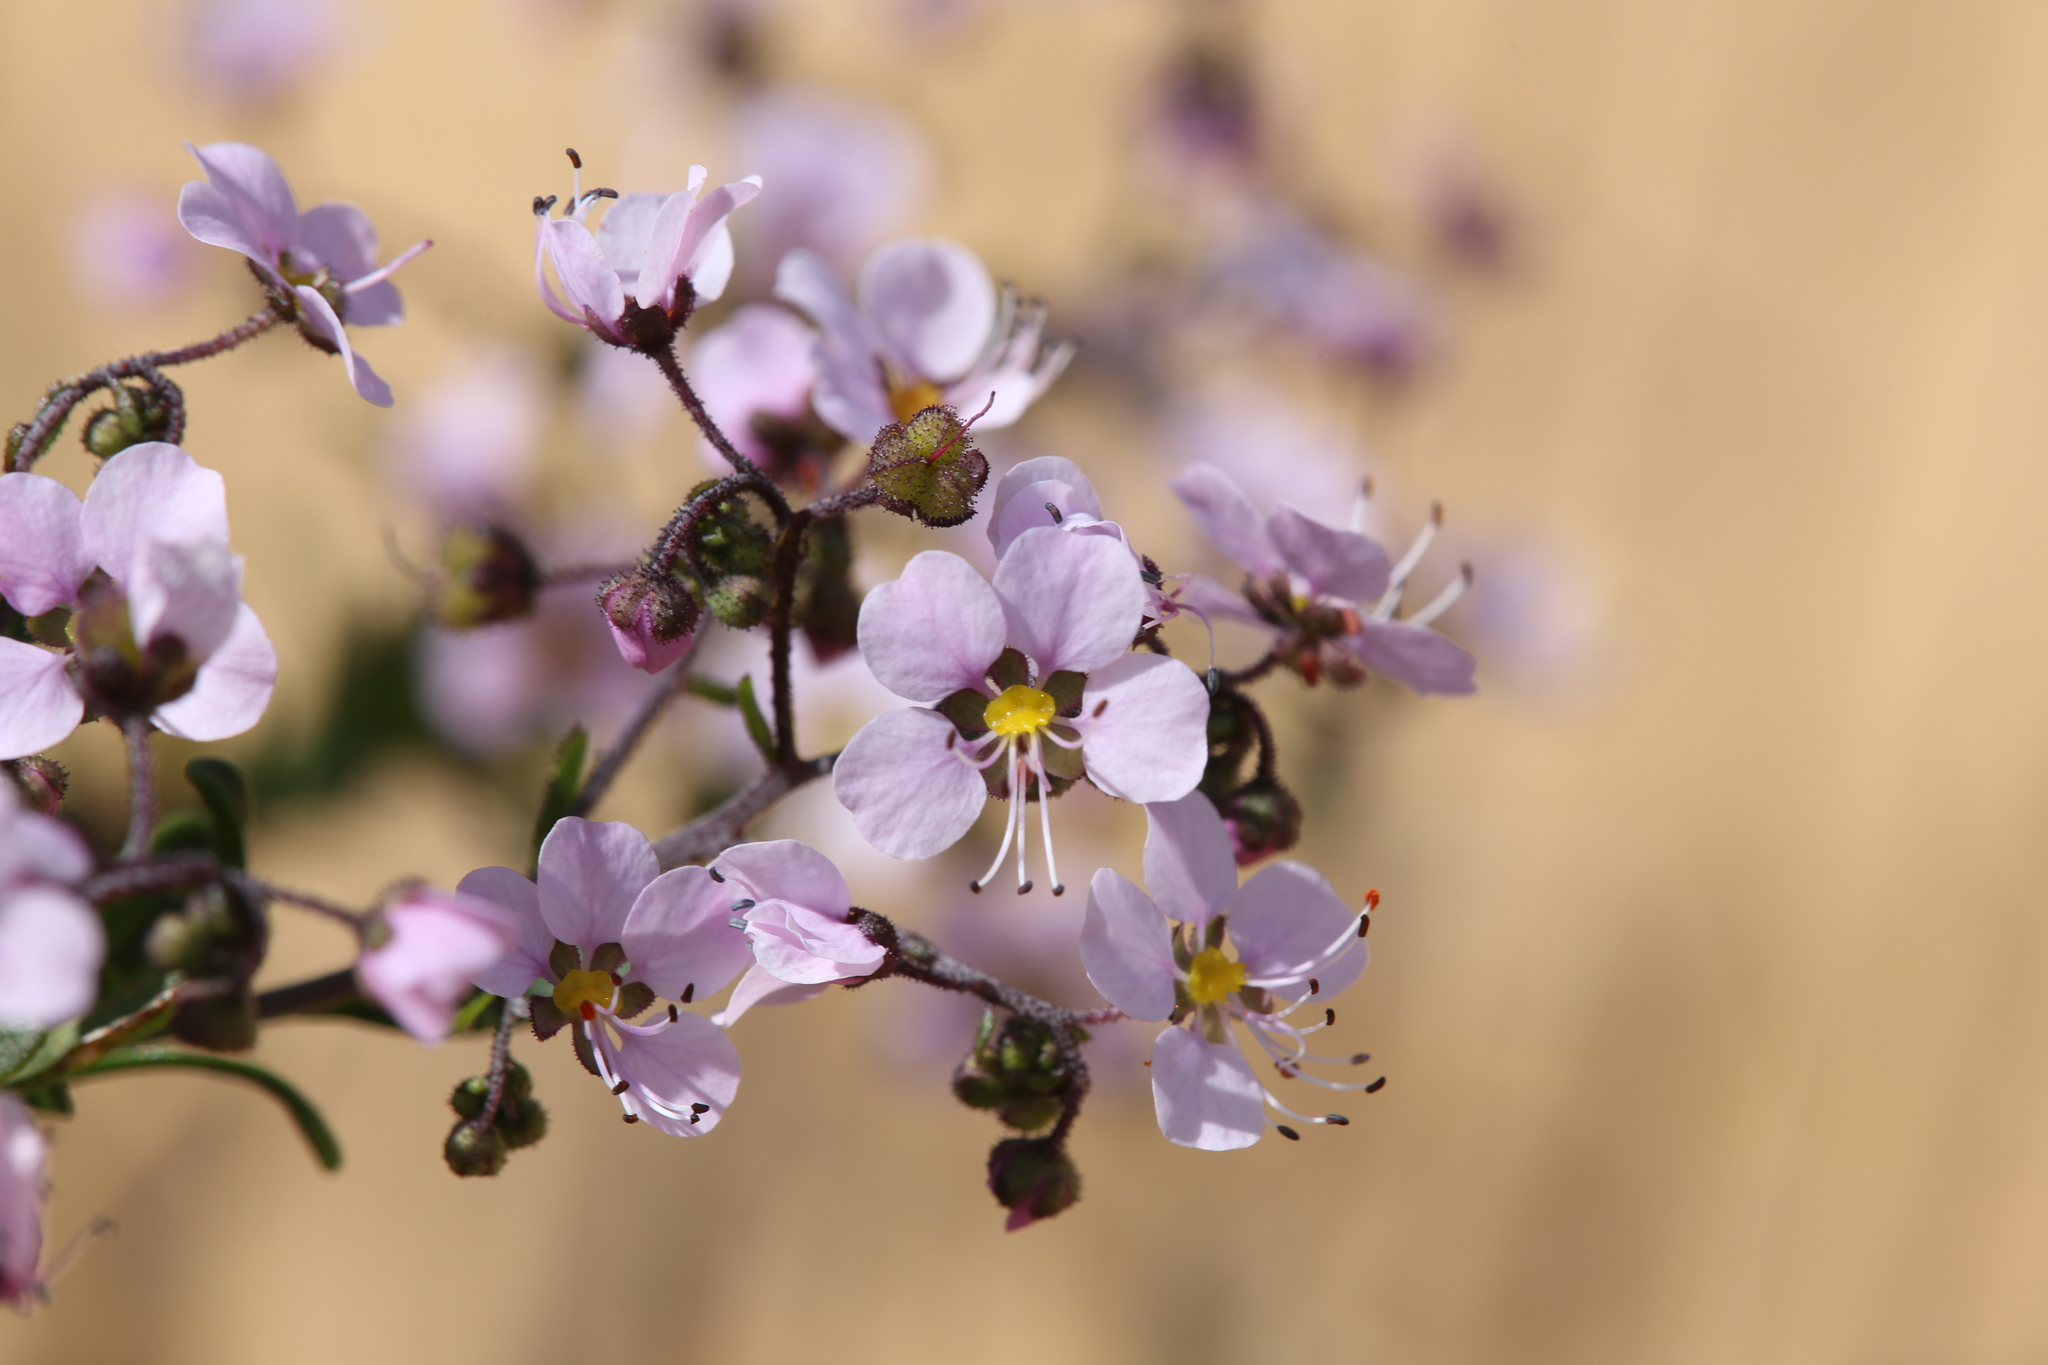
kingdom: Plantae
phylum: Tracheophyta
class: Magnoliopsida
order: Sapindales
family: Sapindaceae
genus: Diplopeltis
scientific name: Diplopeltis huegelii
